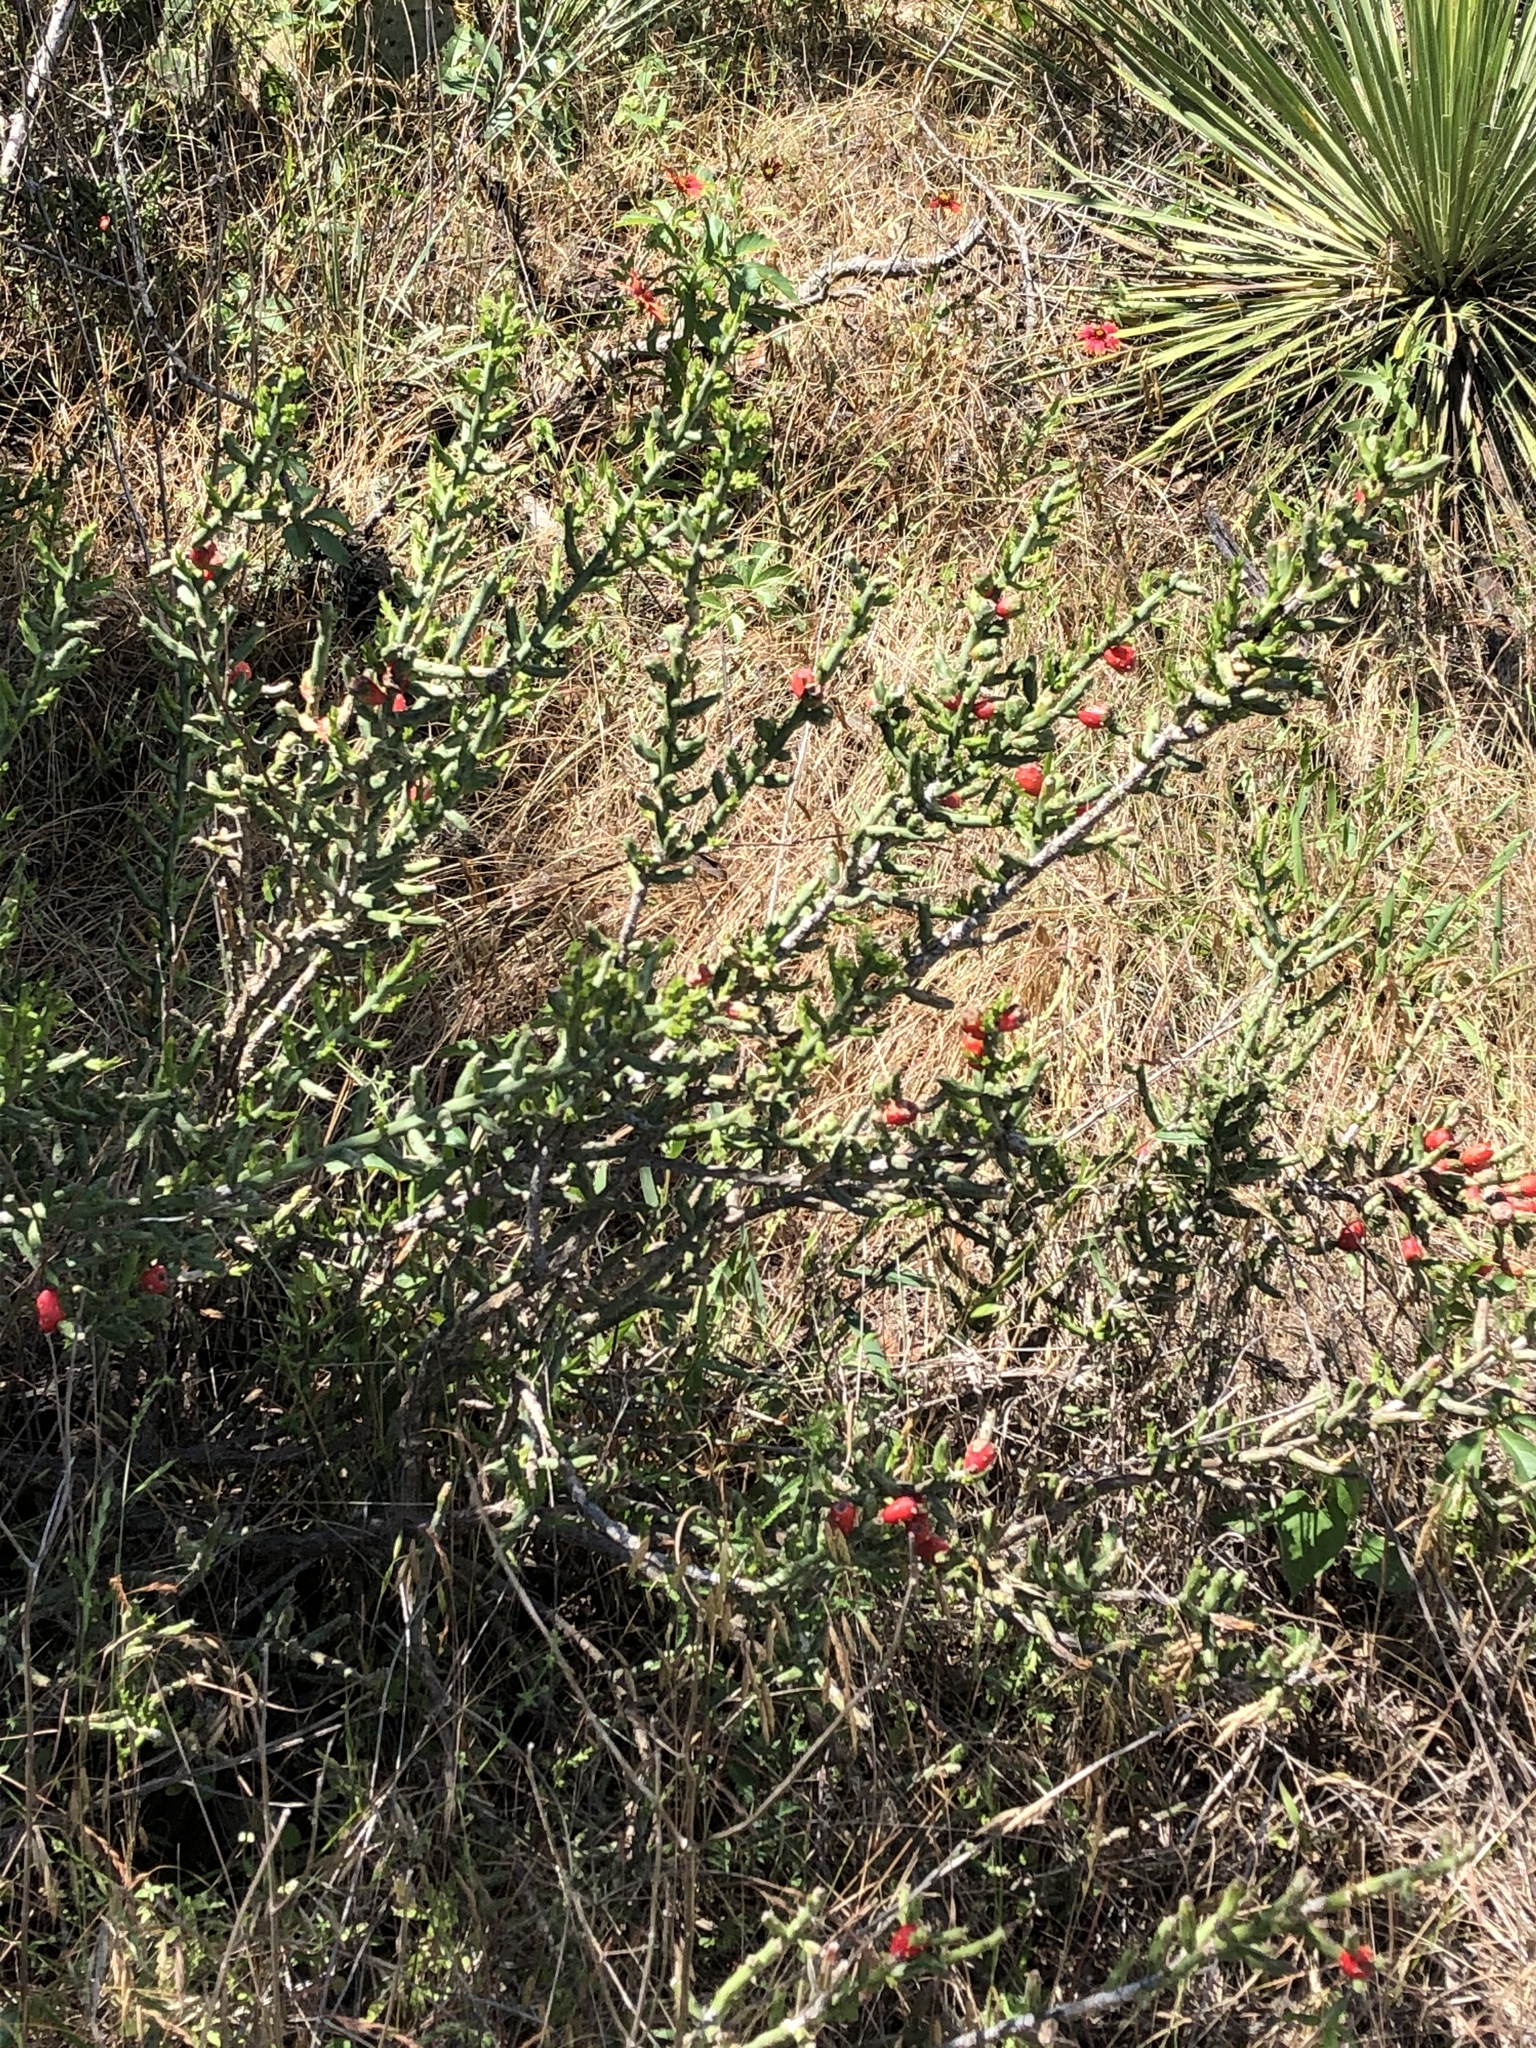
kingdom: Plantae
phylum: Tracheophyta
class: Magnoliopsida
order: Caryophyllales
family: Cactaceae
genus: Cylindropuntia
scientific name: Cylindropuntia leptocaulis
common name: Christmas cactus
